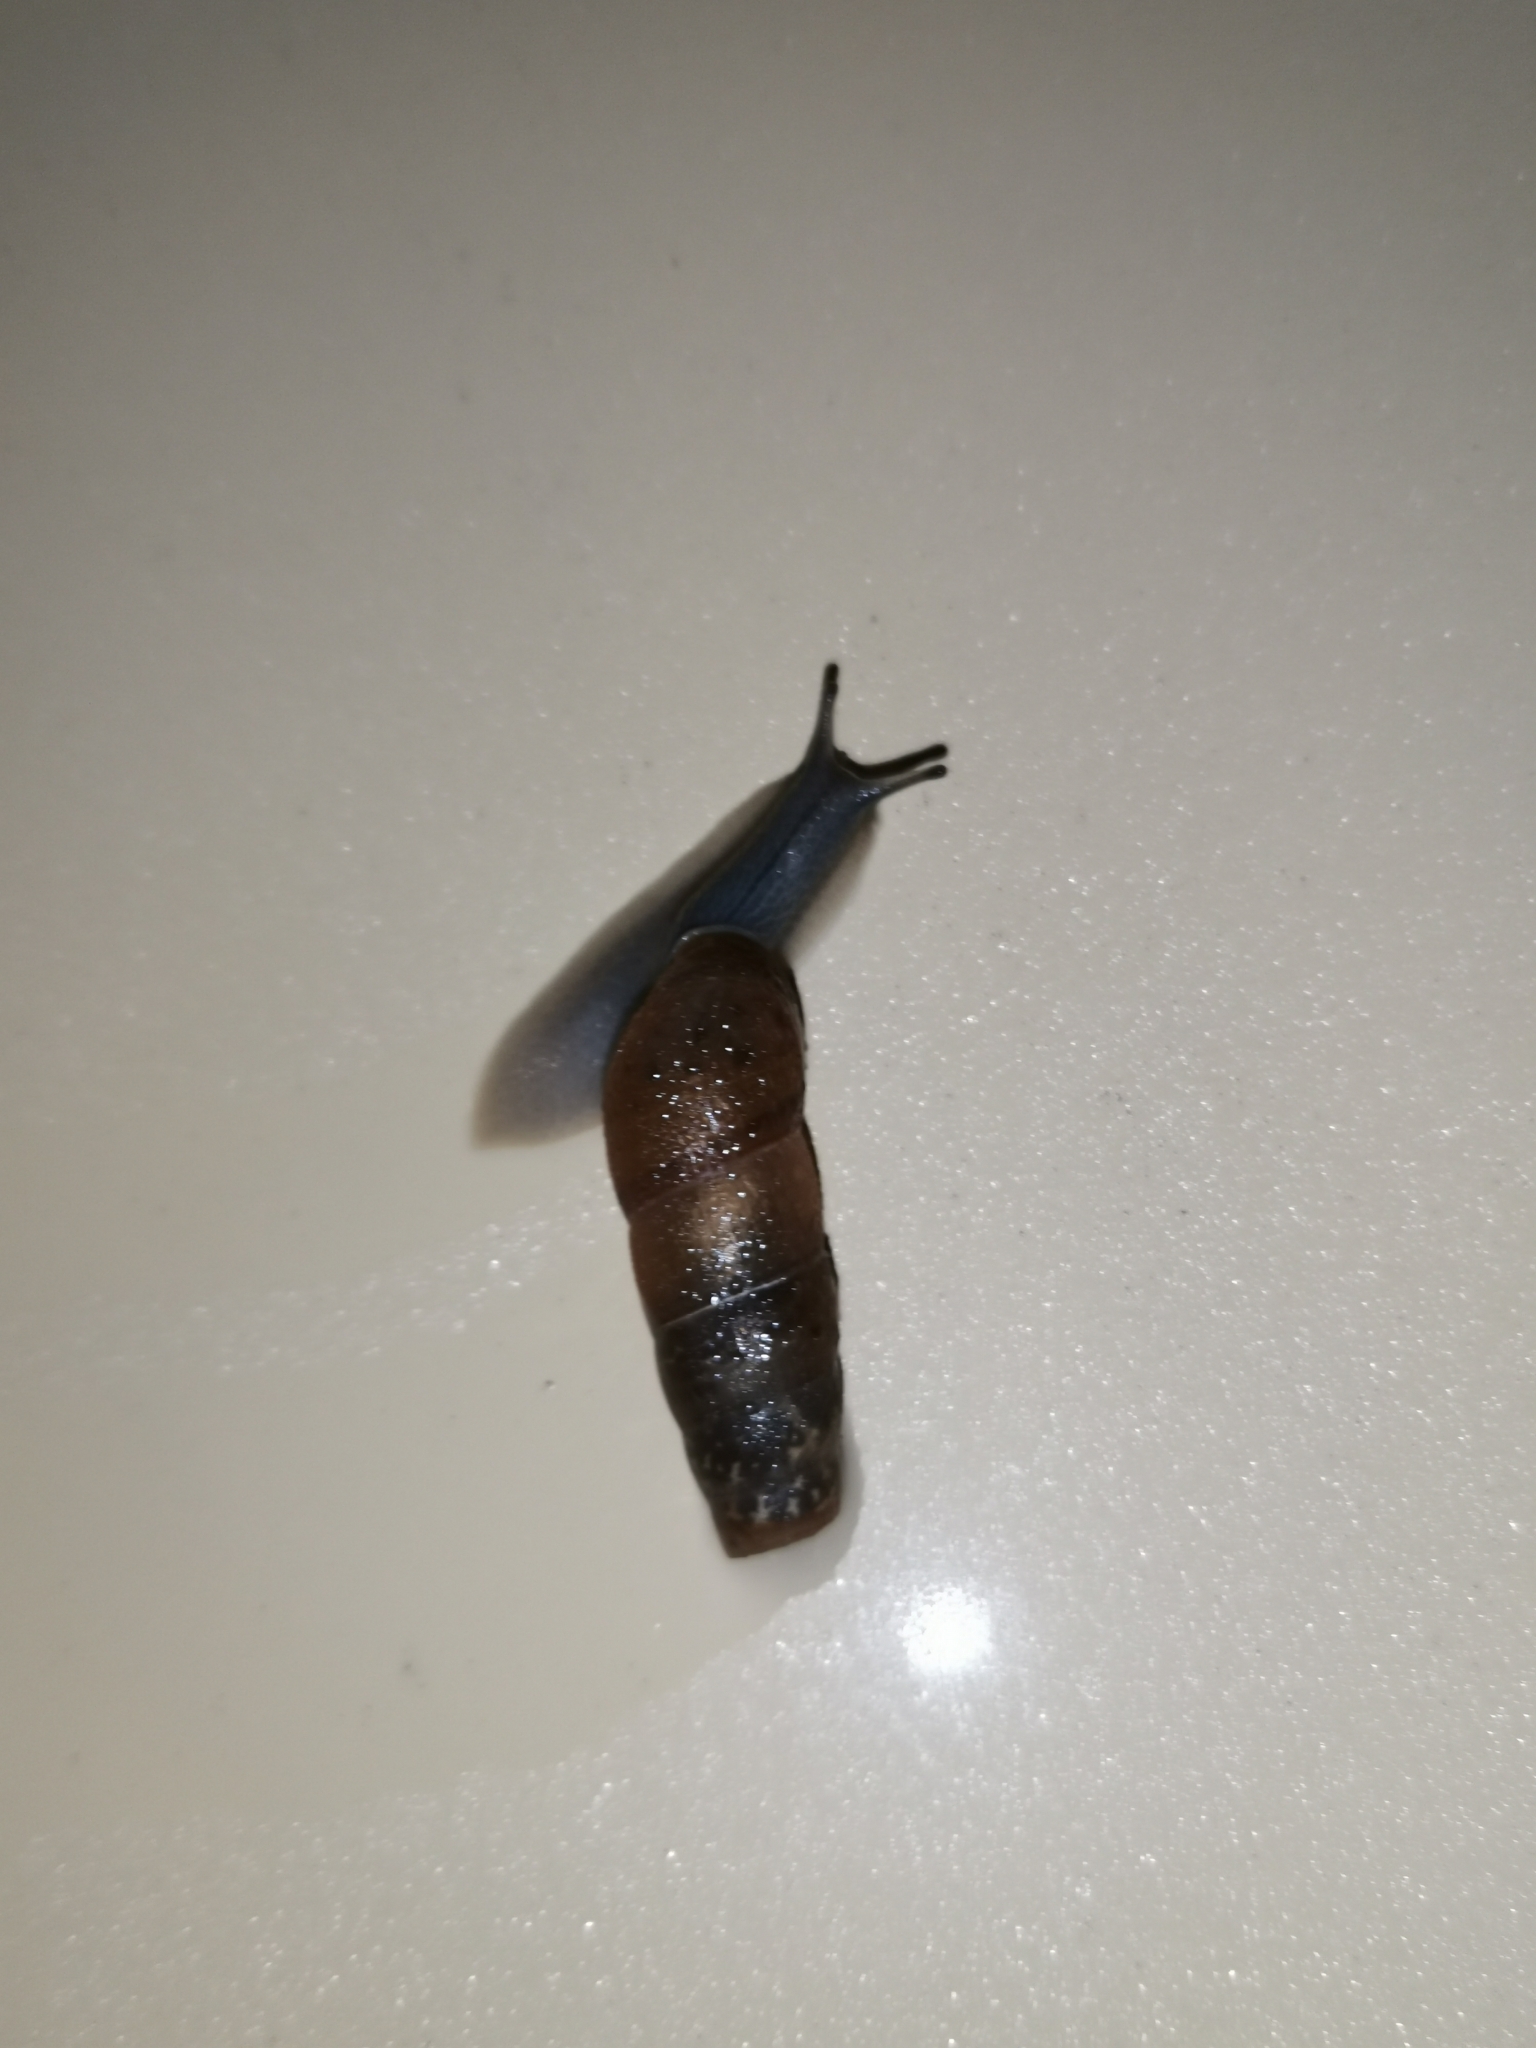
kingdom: Animalia
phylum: Mollusca
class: Gastropoda
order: Stylommatophora
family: Achatinidae
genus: Rumina
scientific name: Rumina decollata
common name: Decollate snail
